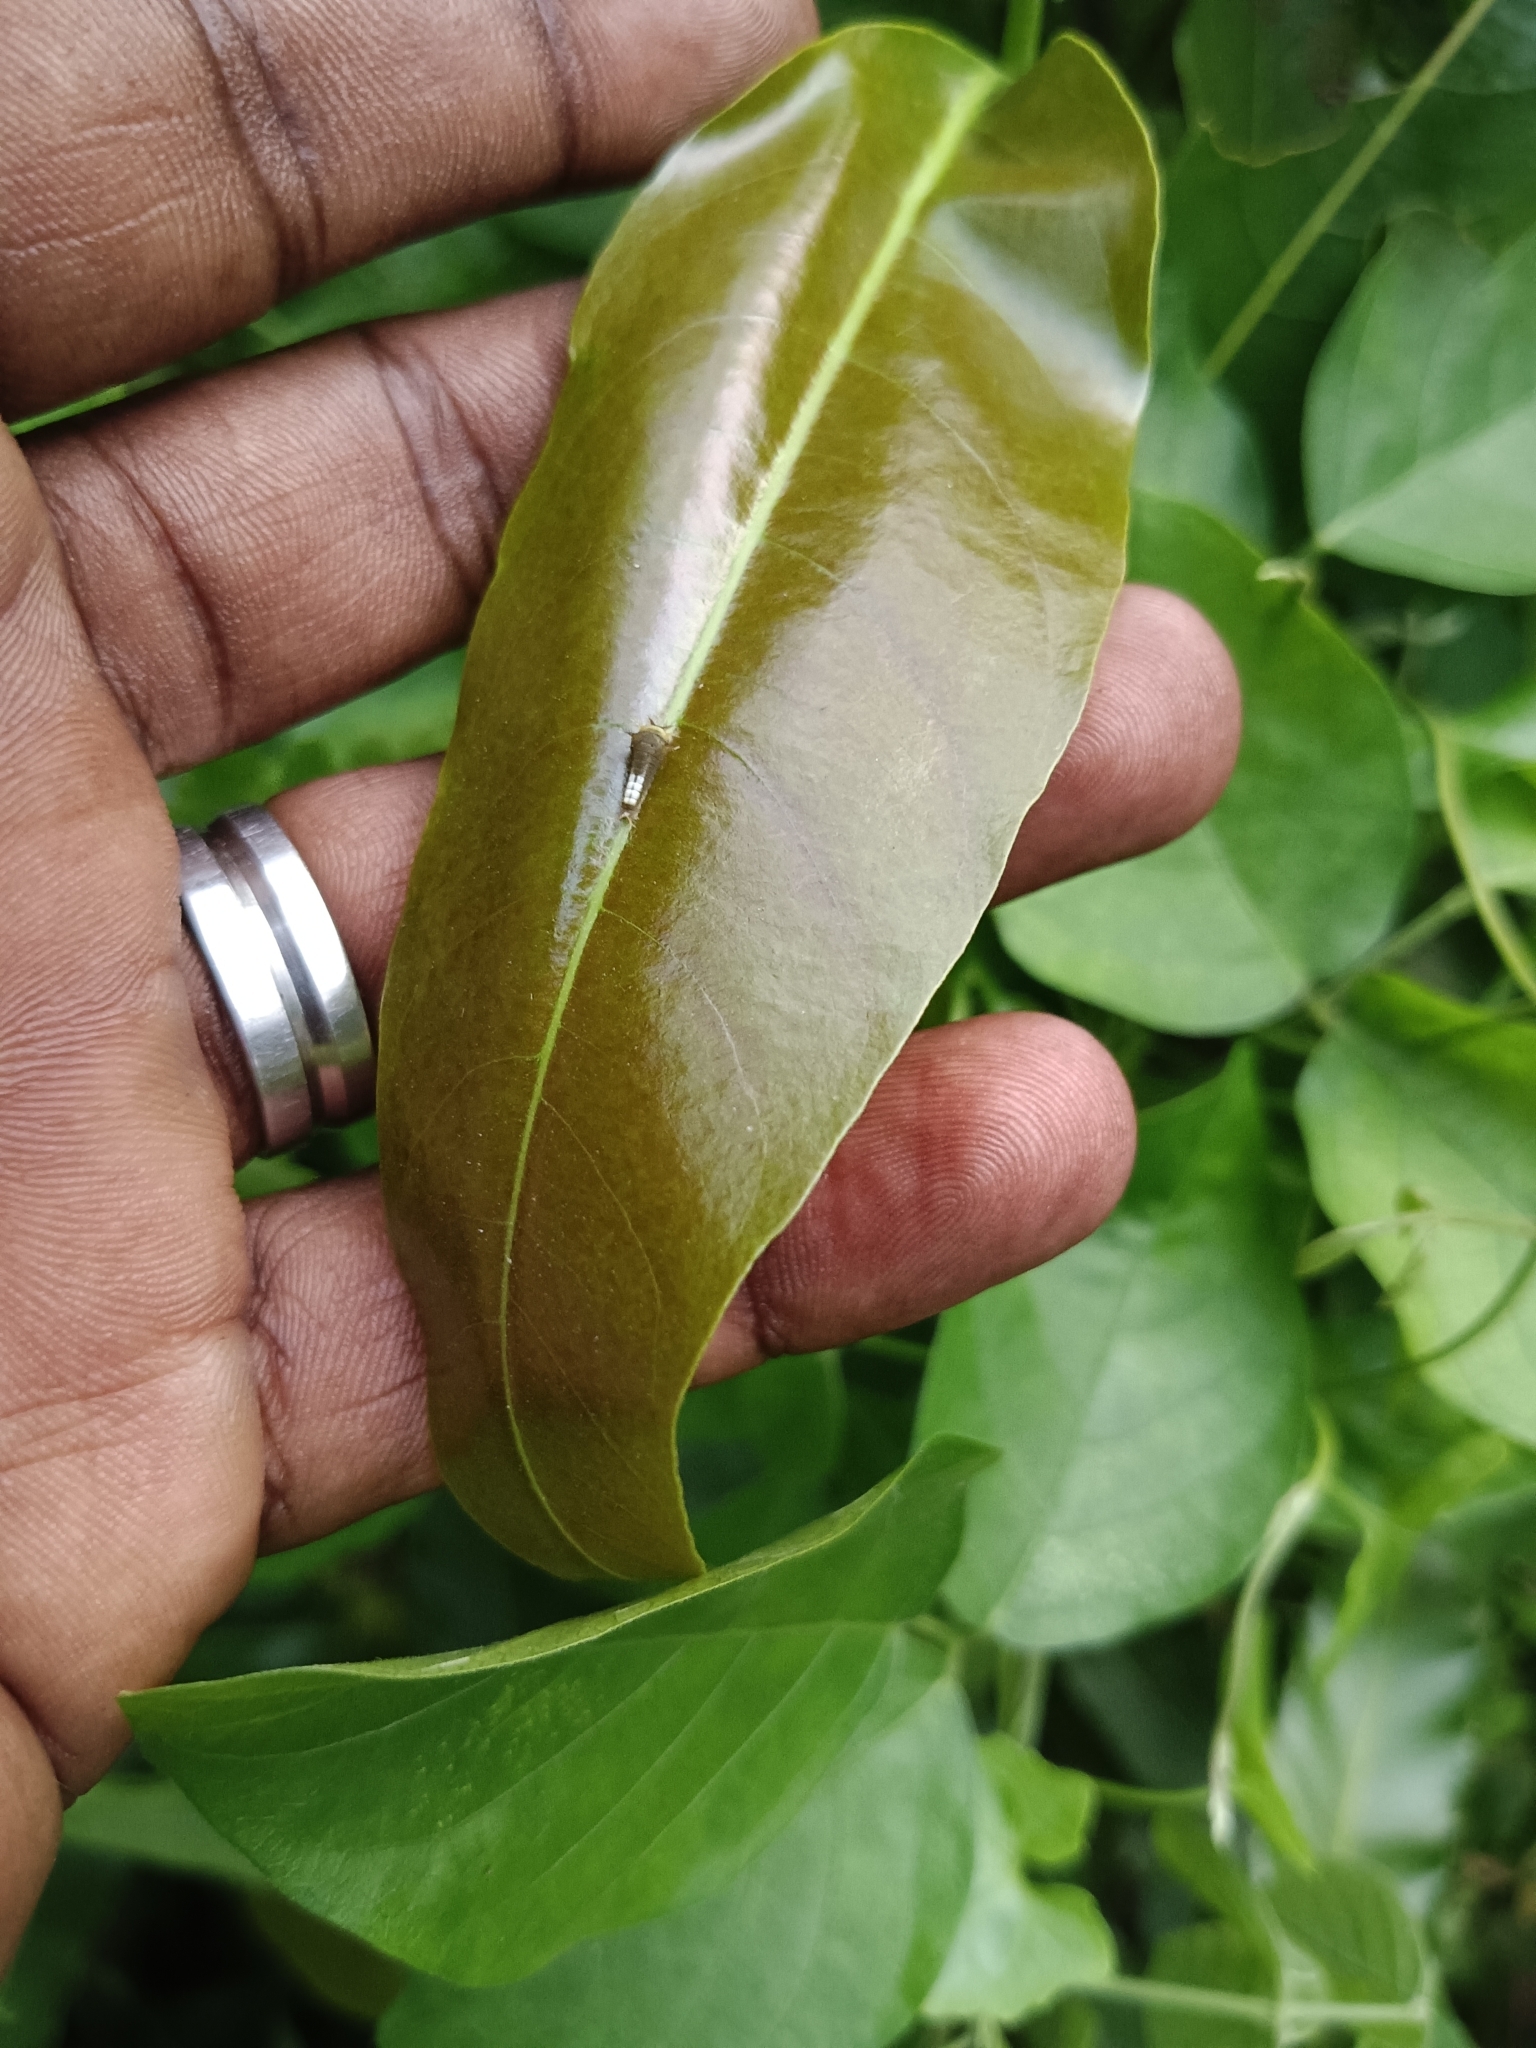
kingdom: Animalia
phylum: Arthropoda
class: Insecta
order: Lepidoptera
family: Papilionidae
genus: Graphium
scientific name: Graphium agamemnon
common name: Tailed jay
